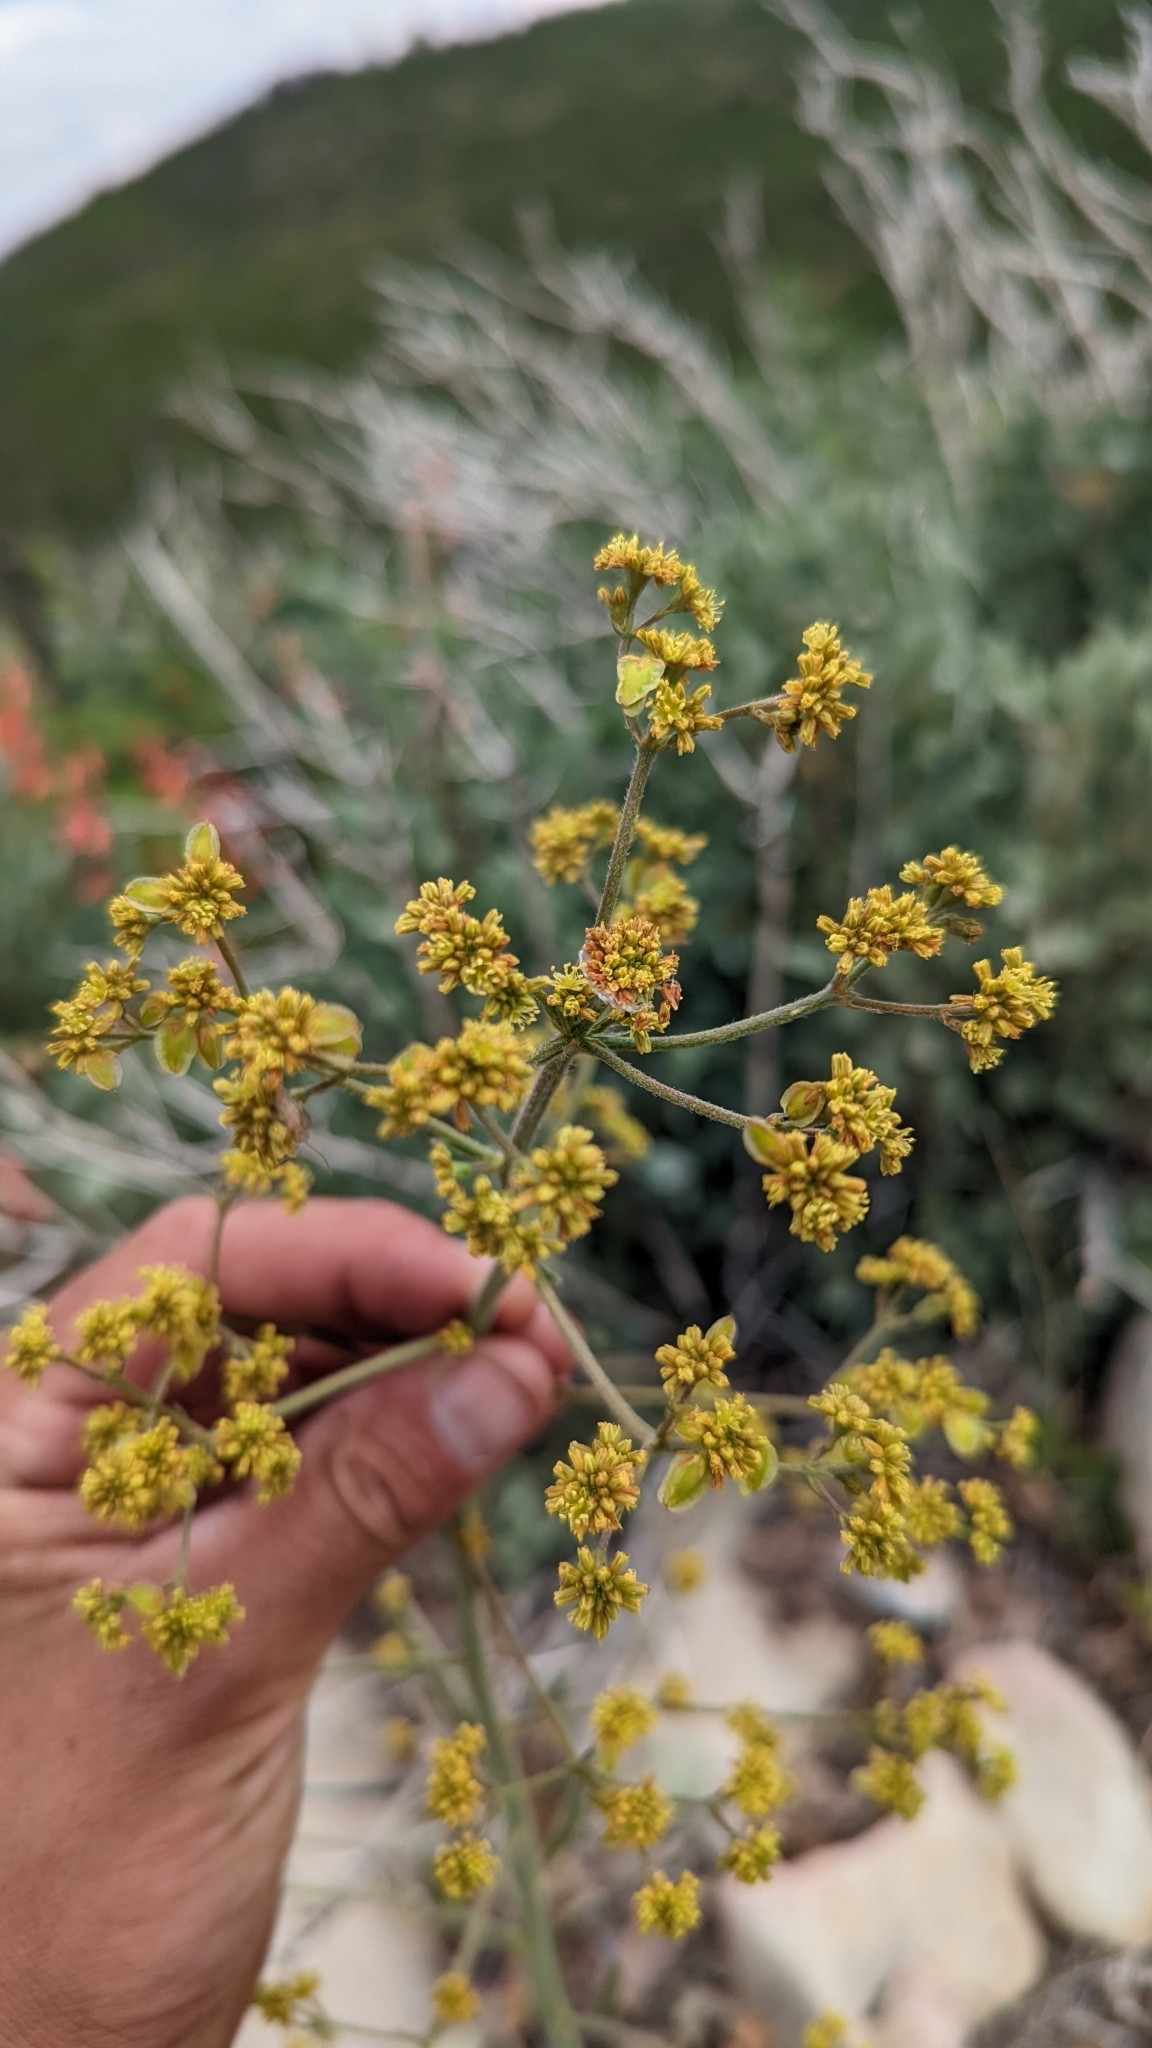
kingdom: Plantae
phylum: Tracheophyta
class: Magnoliopsida
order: Caryophyllales
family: Polygonaceae
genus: Eriogonum
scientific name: Eriogonum alatum
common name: Winged eriogonum
